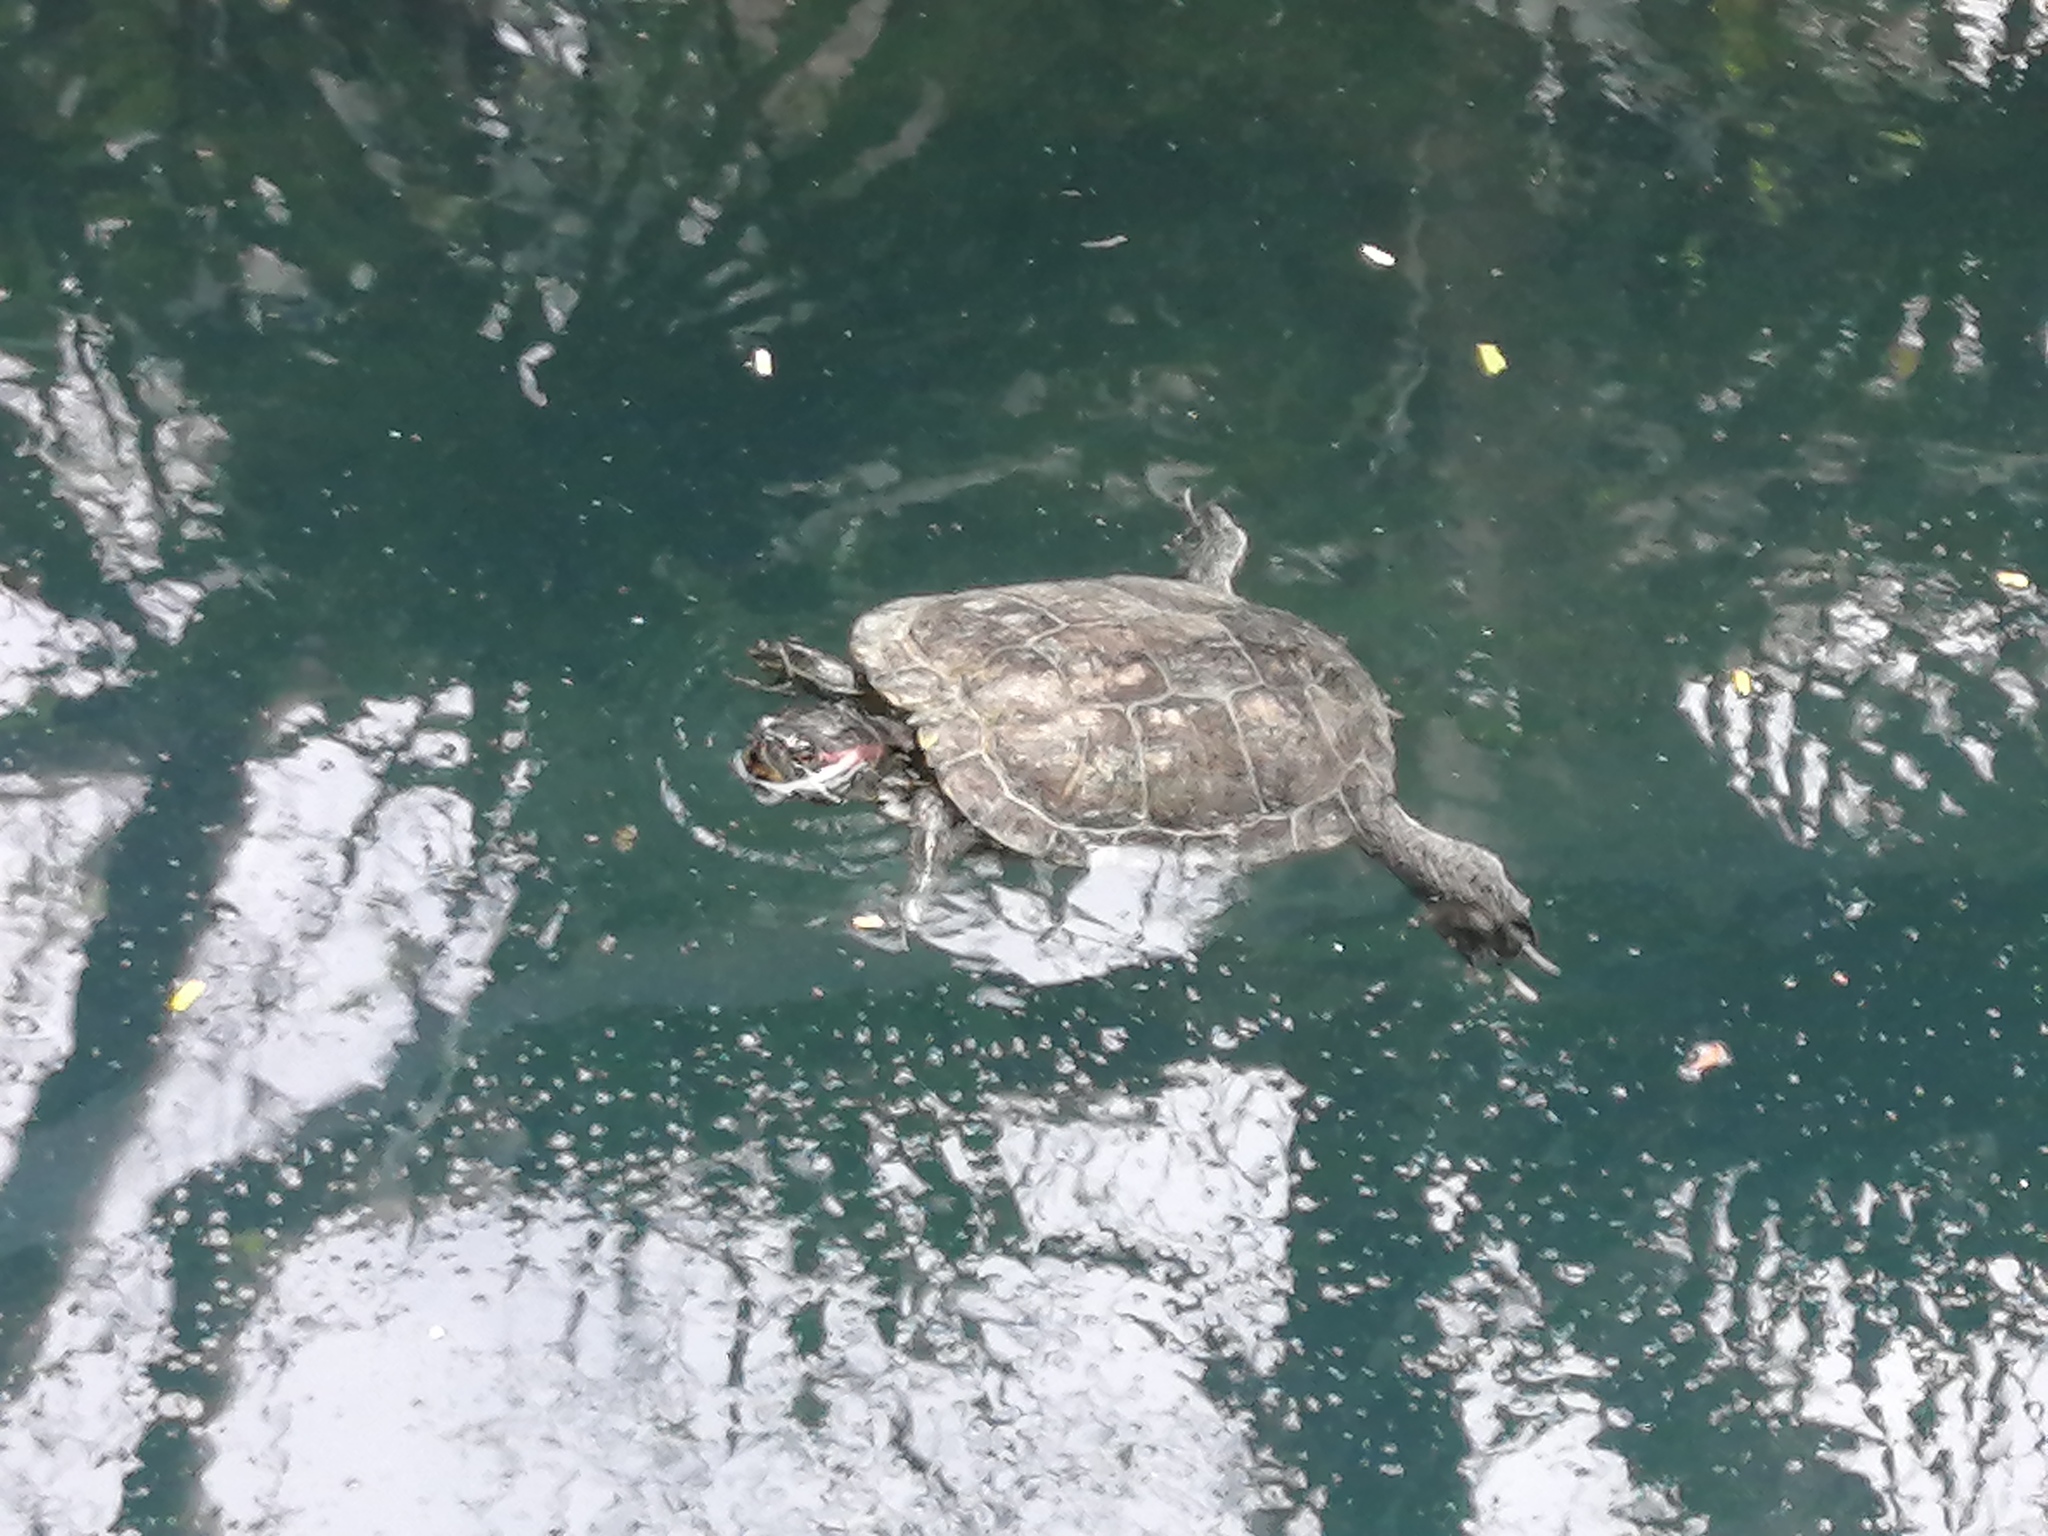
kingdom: Animalia
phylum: Chordata
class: Testudines
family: Emydidae
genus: Trachemys
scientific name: Trachemys scripta
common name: Slider
